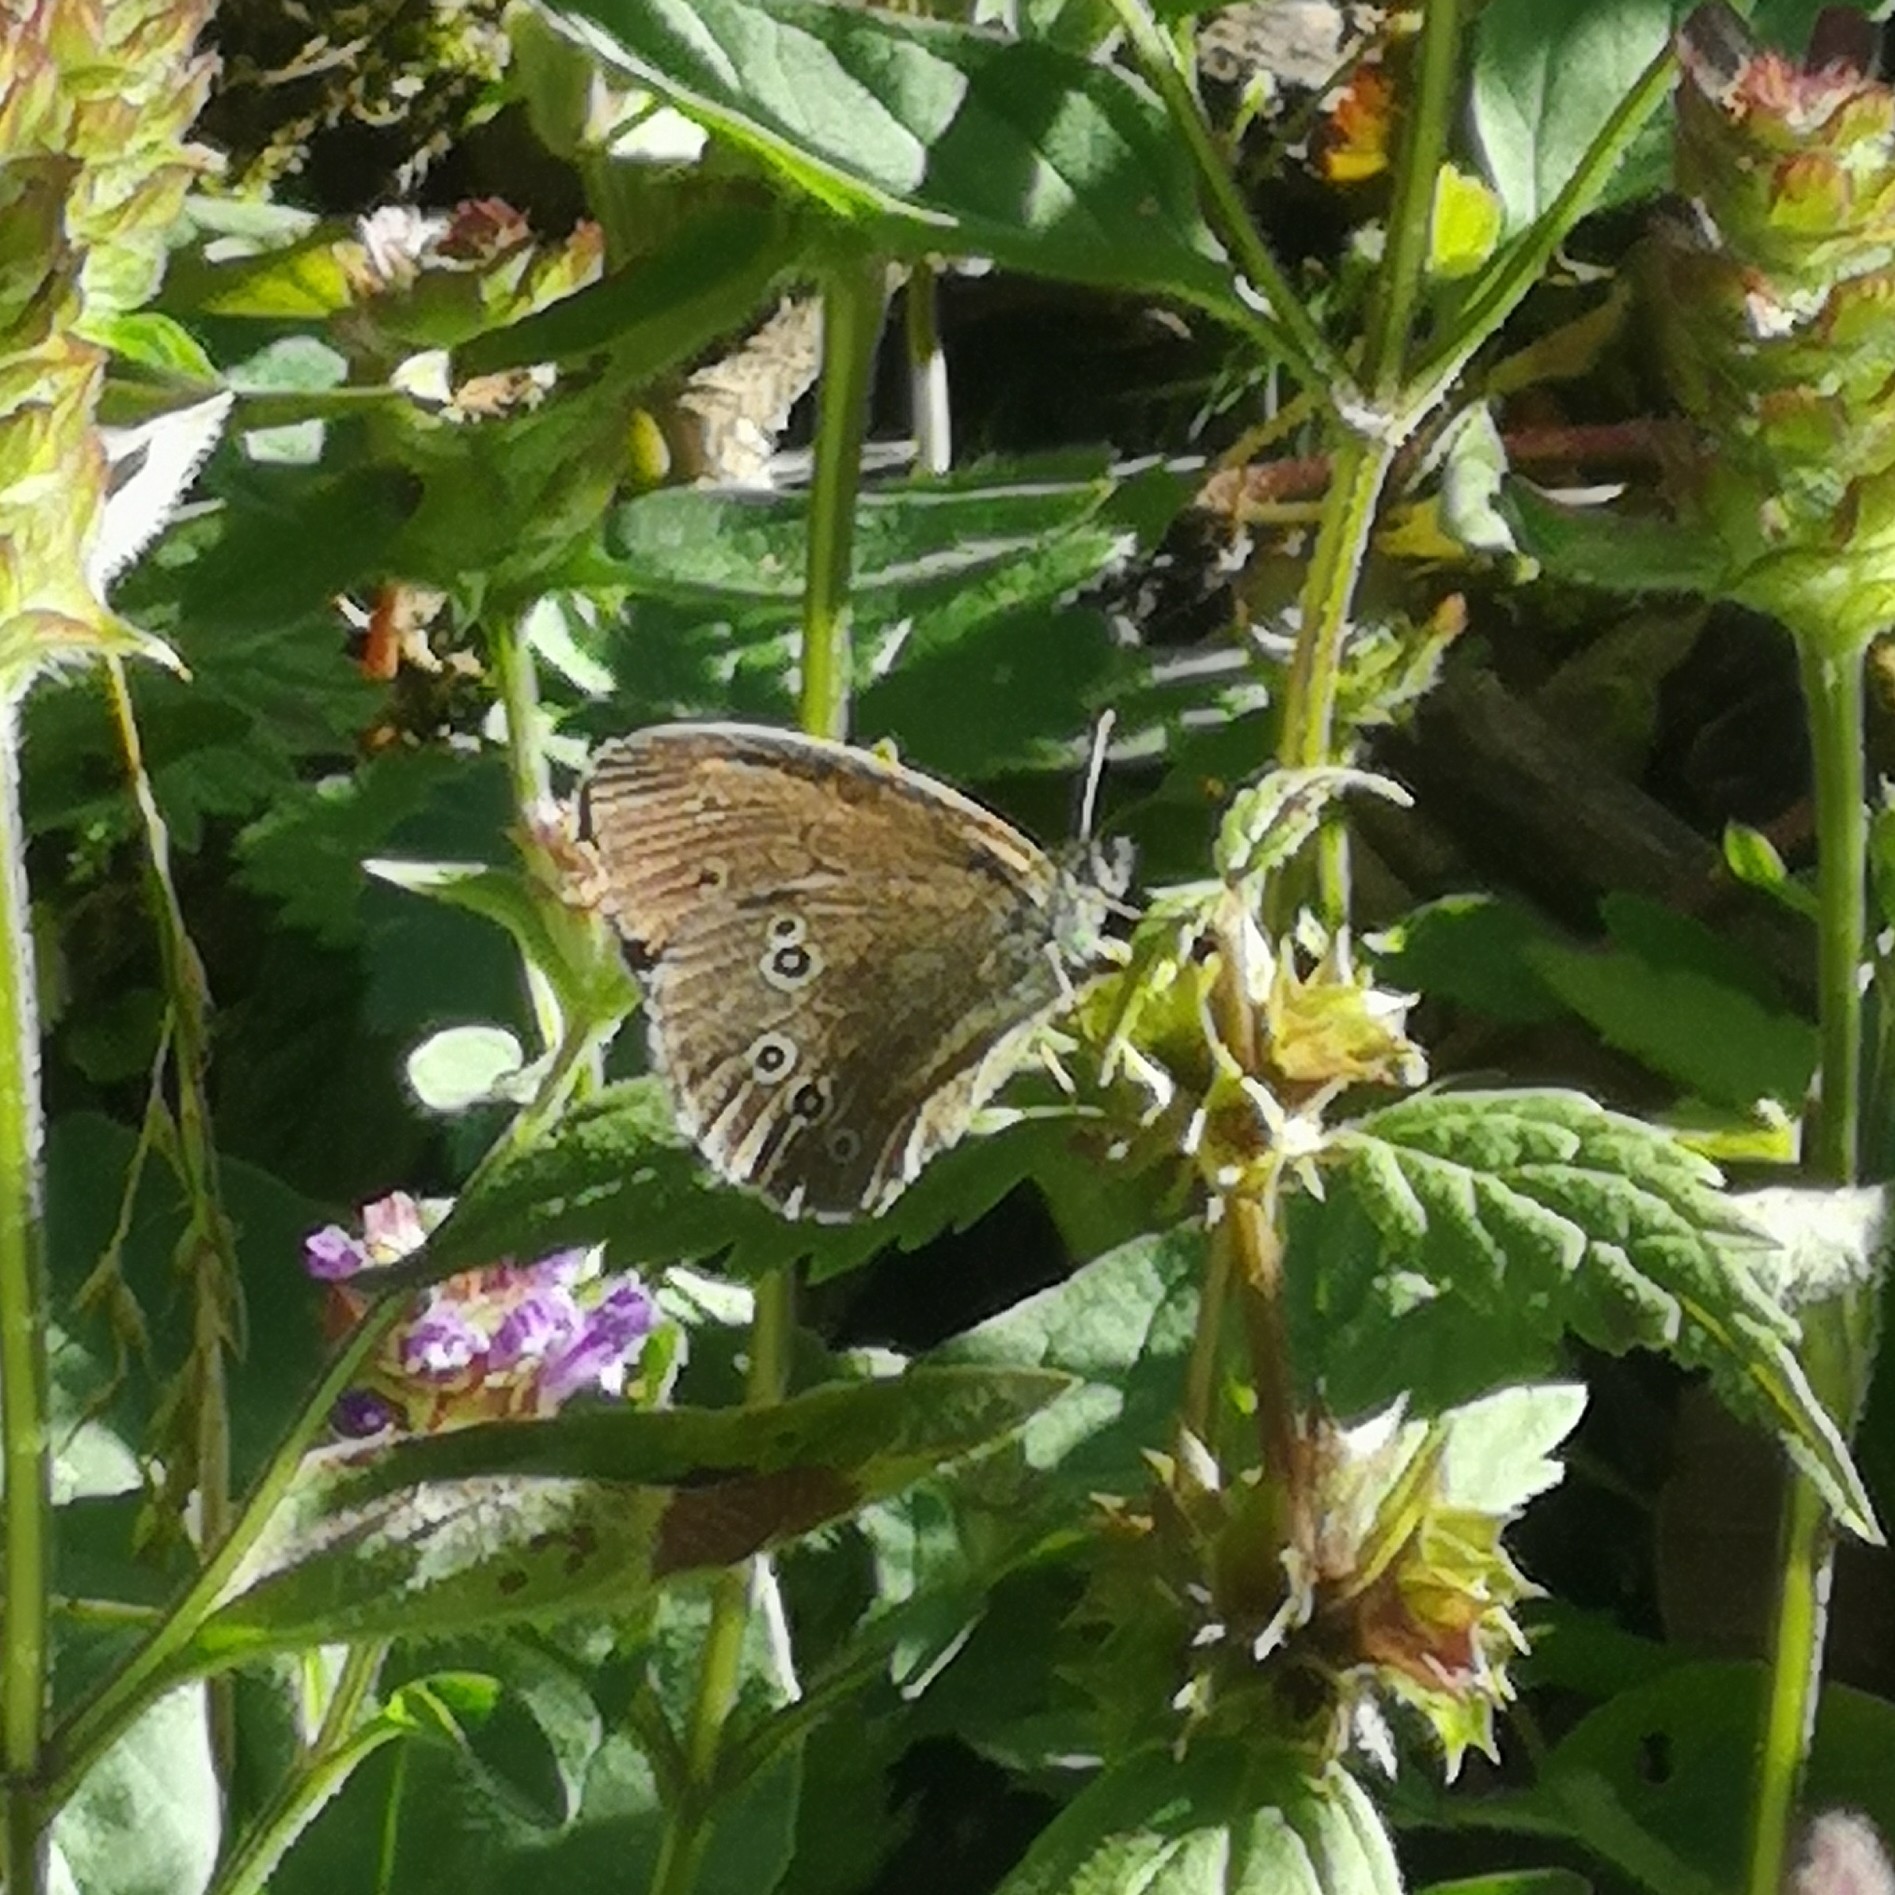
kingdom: Animalia
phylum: Arthropoda
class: Insecta
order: Lepidoptera
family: Nymphalidae
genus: Aphantopus
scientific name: Aphantopus hyperantus
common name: Ringlet
